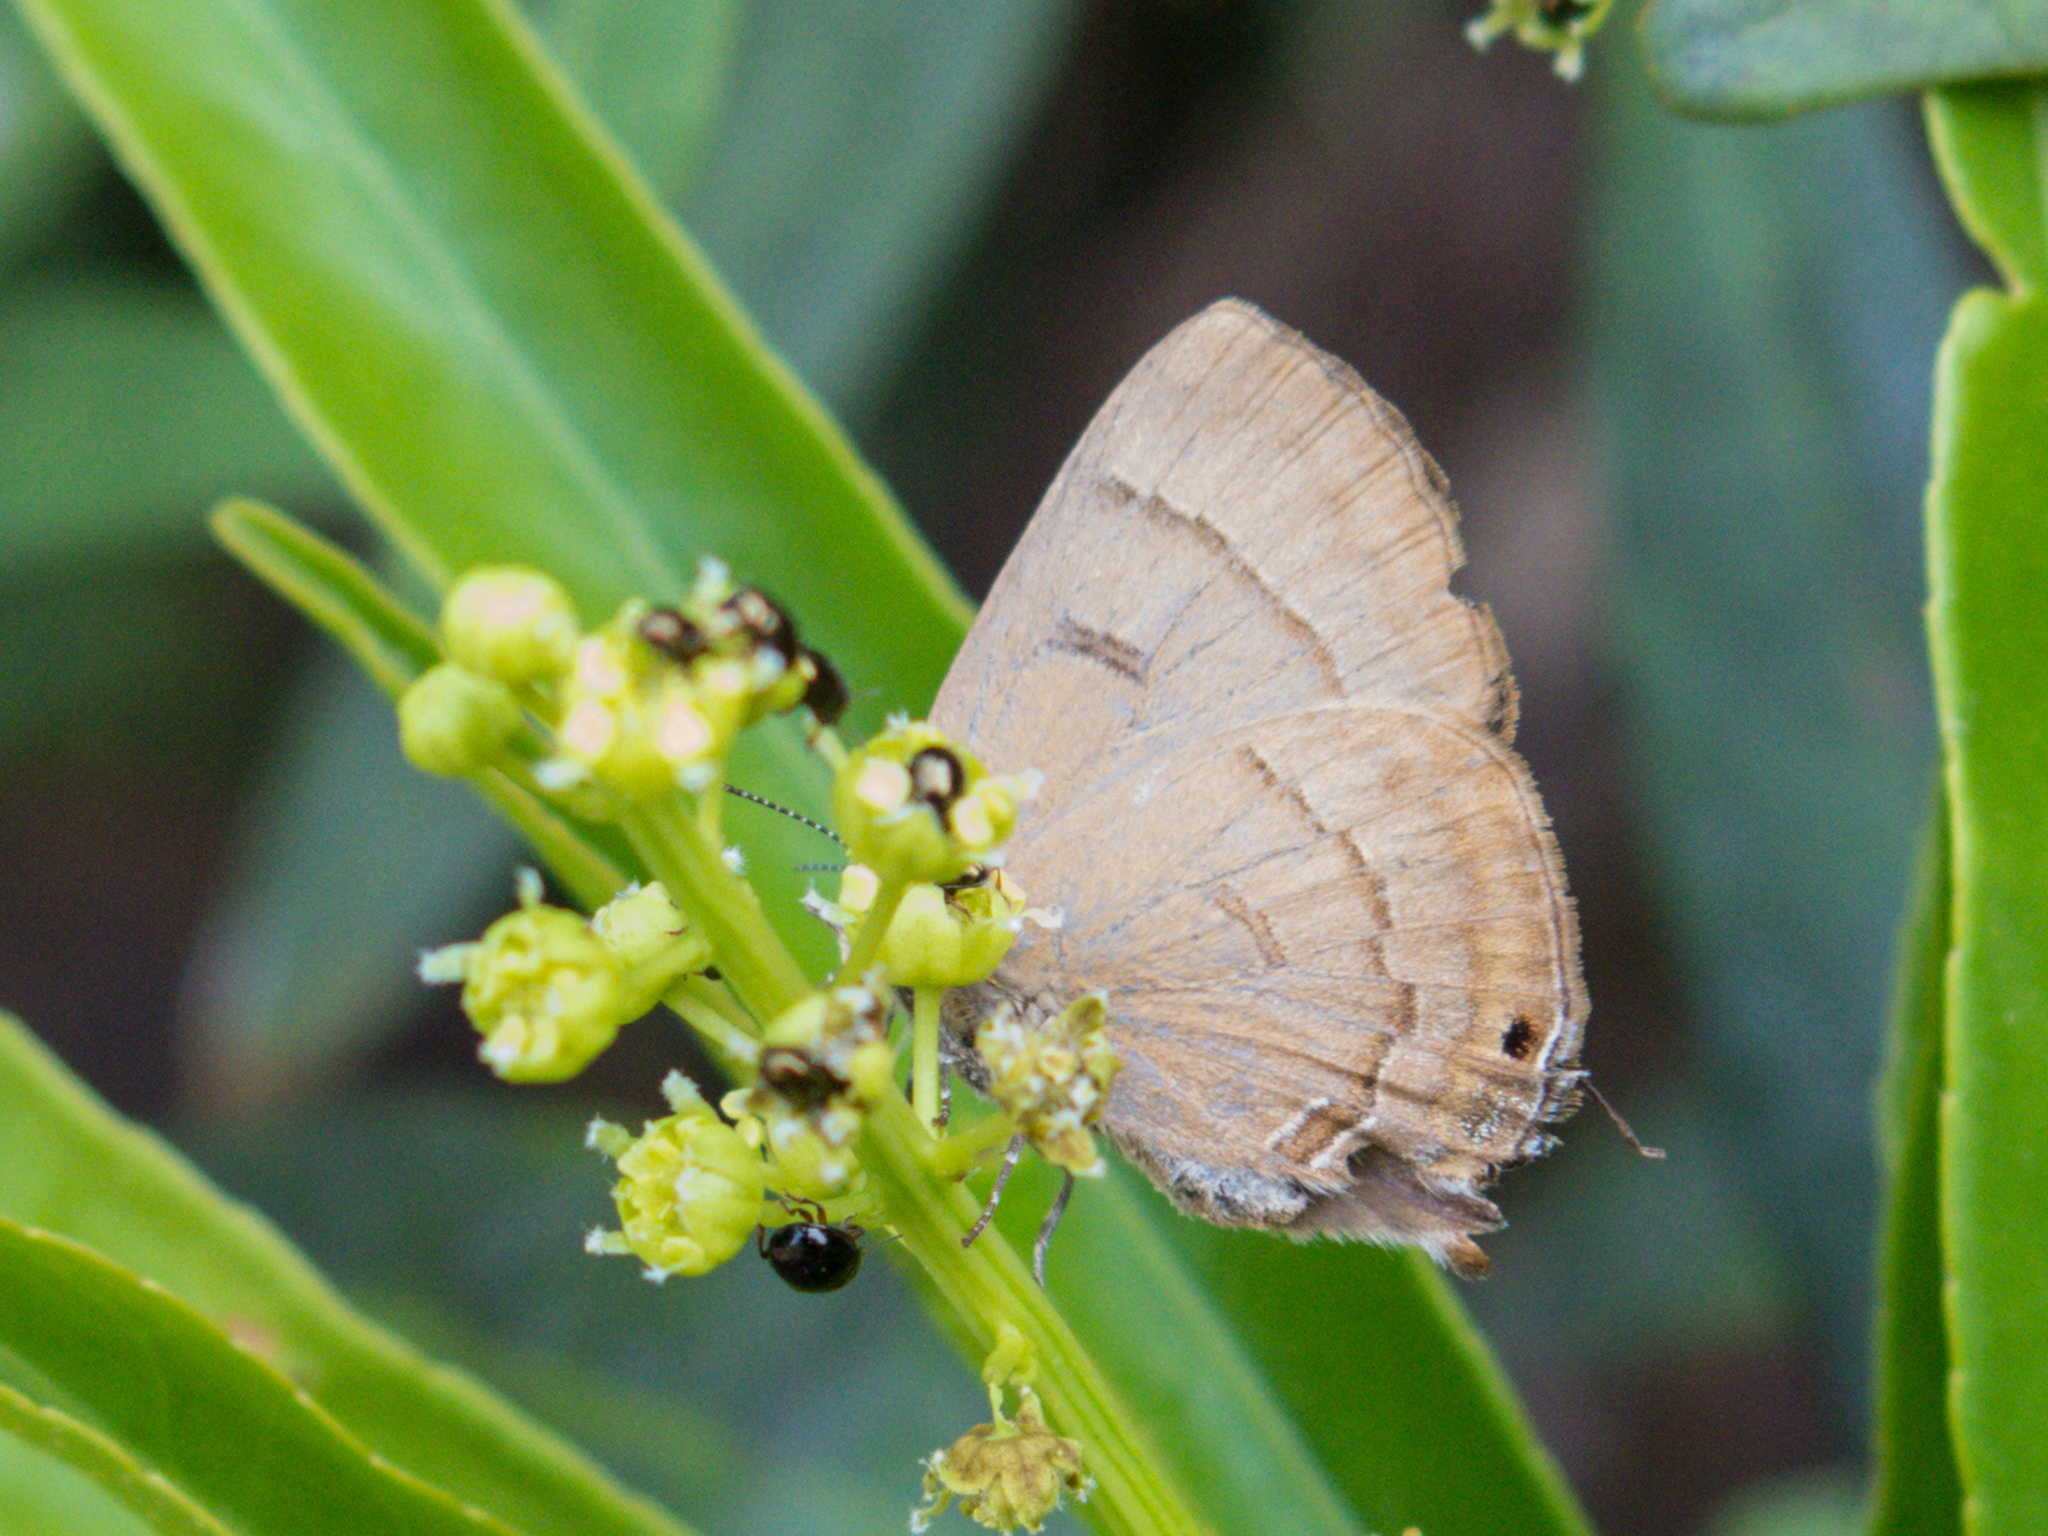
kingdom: Animalia
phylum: Arthropoda
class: Insecta
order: Lepidoptera
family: Lycaenidae
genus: Rapala
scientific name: Rapala pheretima
